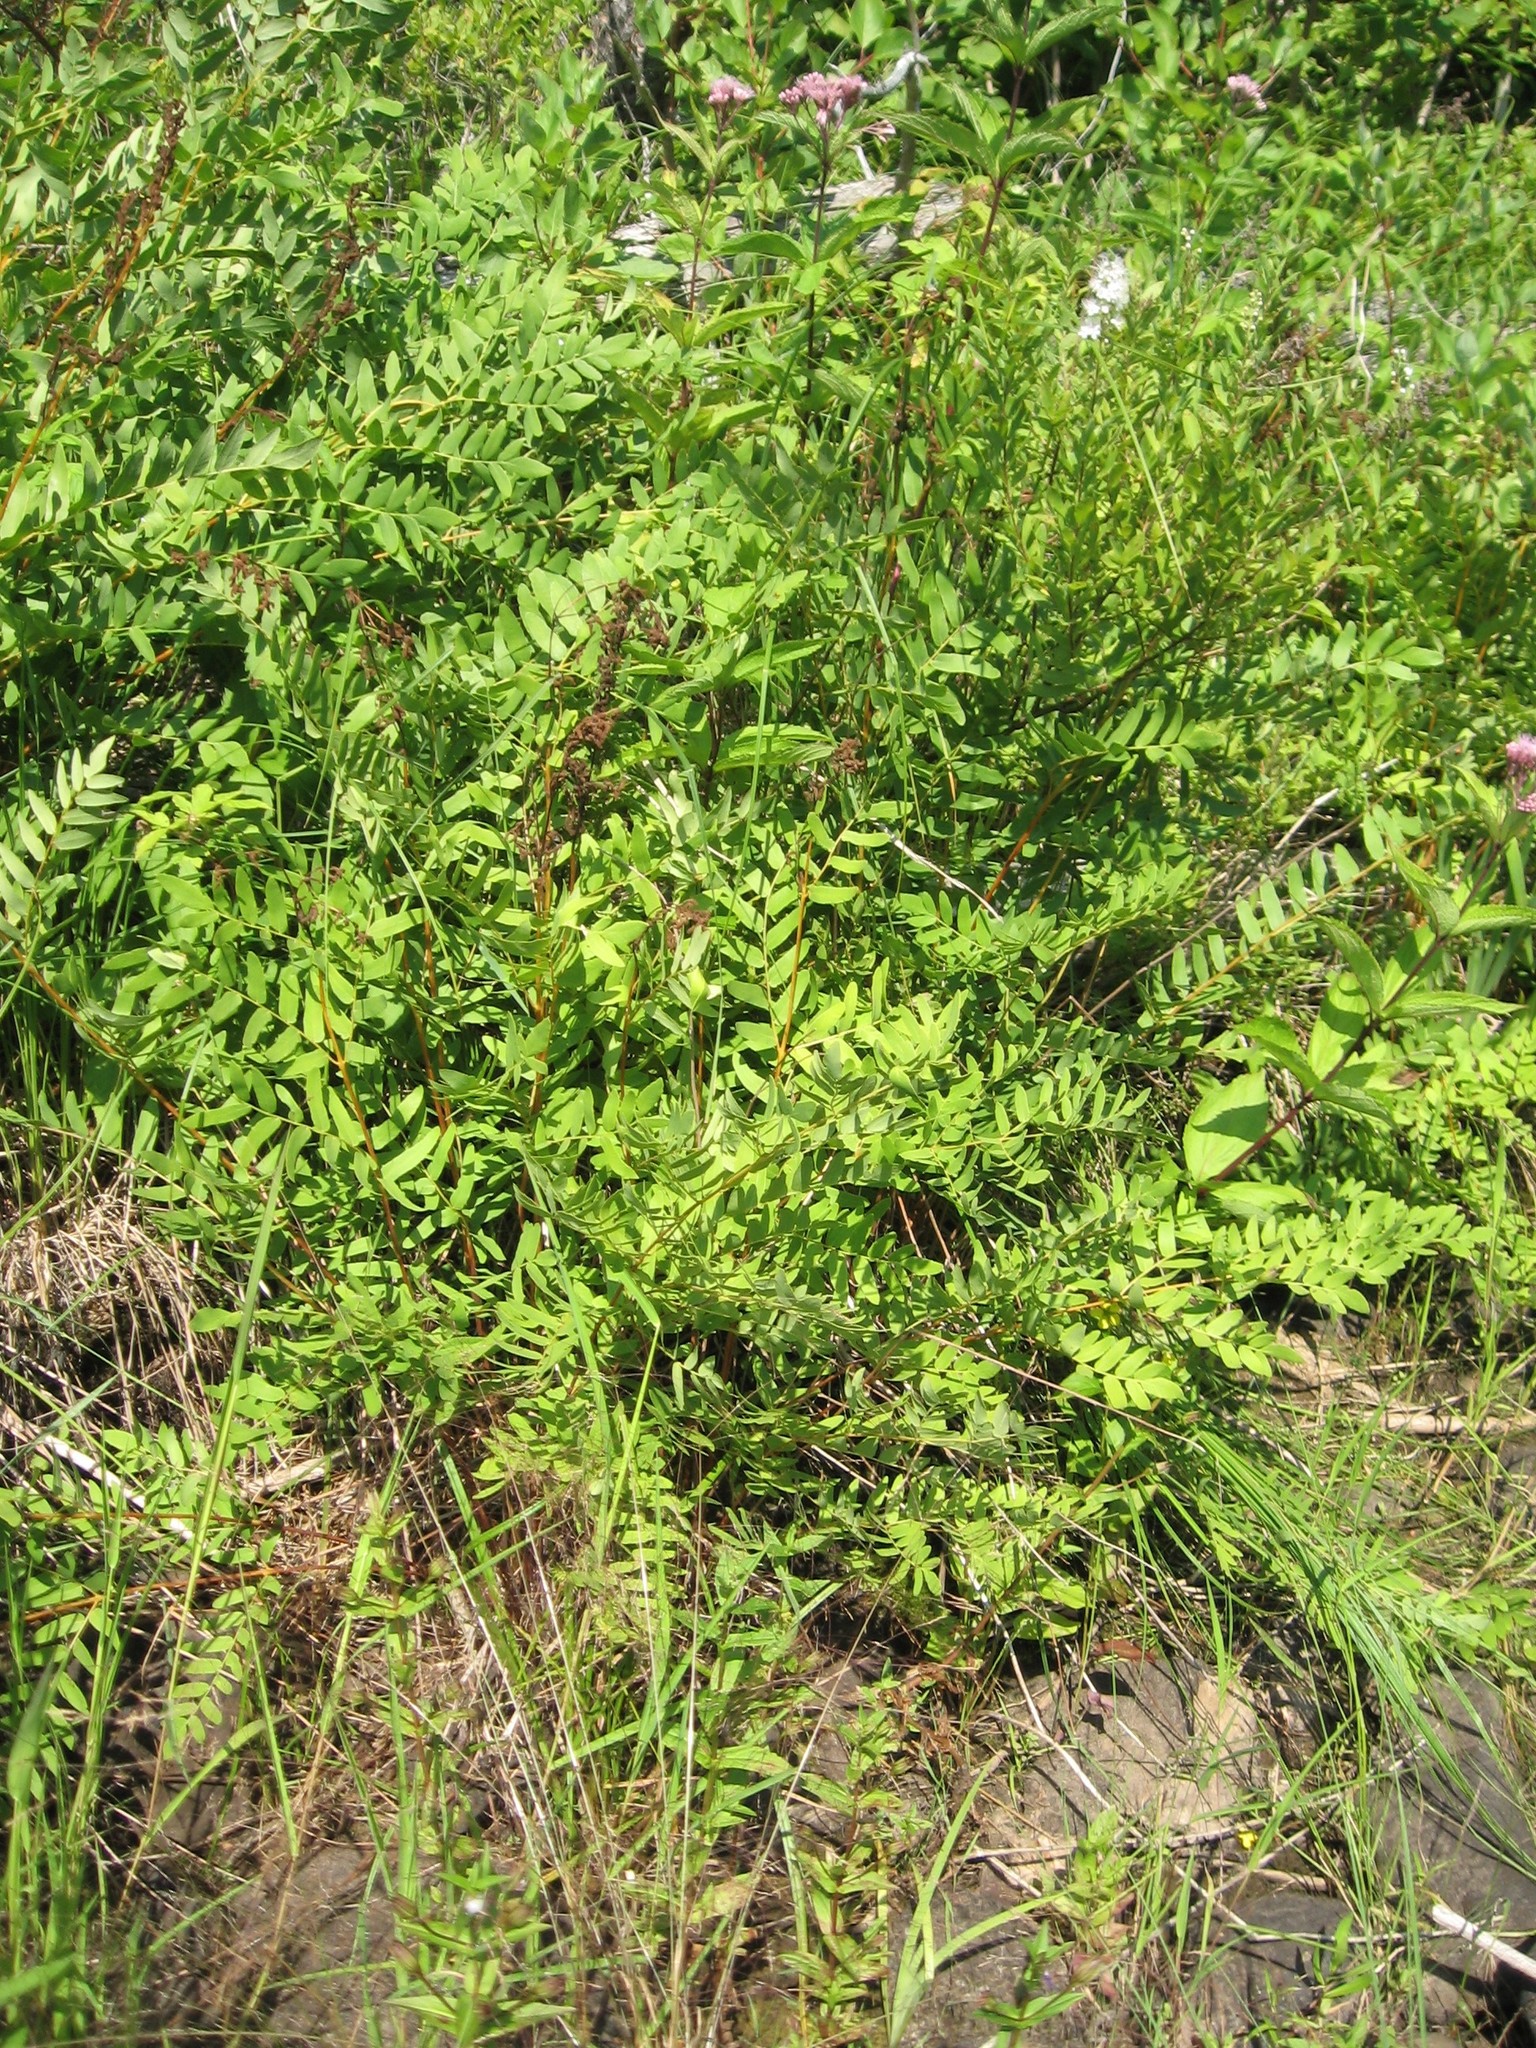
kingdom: Plantae
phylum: Tracheophyta
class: Polypodiopsida
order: Osmundales
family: Osmundaceae
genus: Osmunda
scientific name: Osmunda spectabilis
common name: American royal fern
